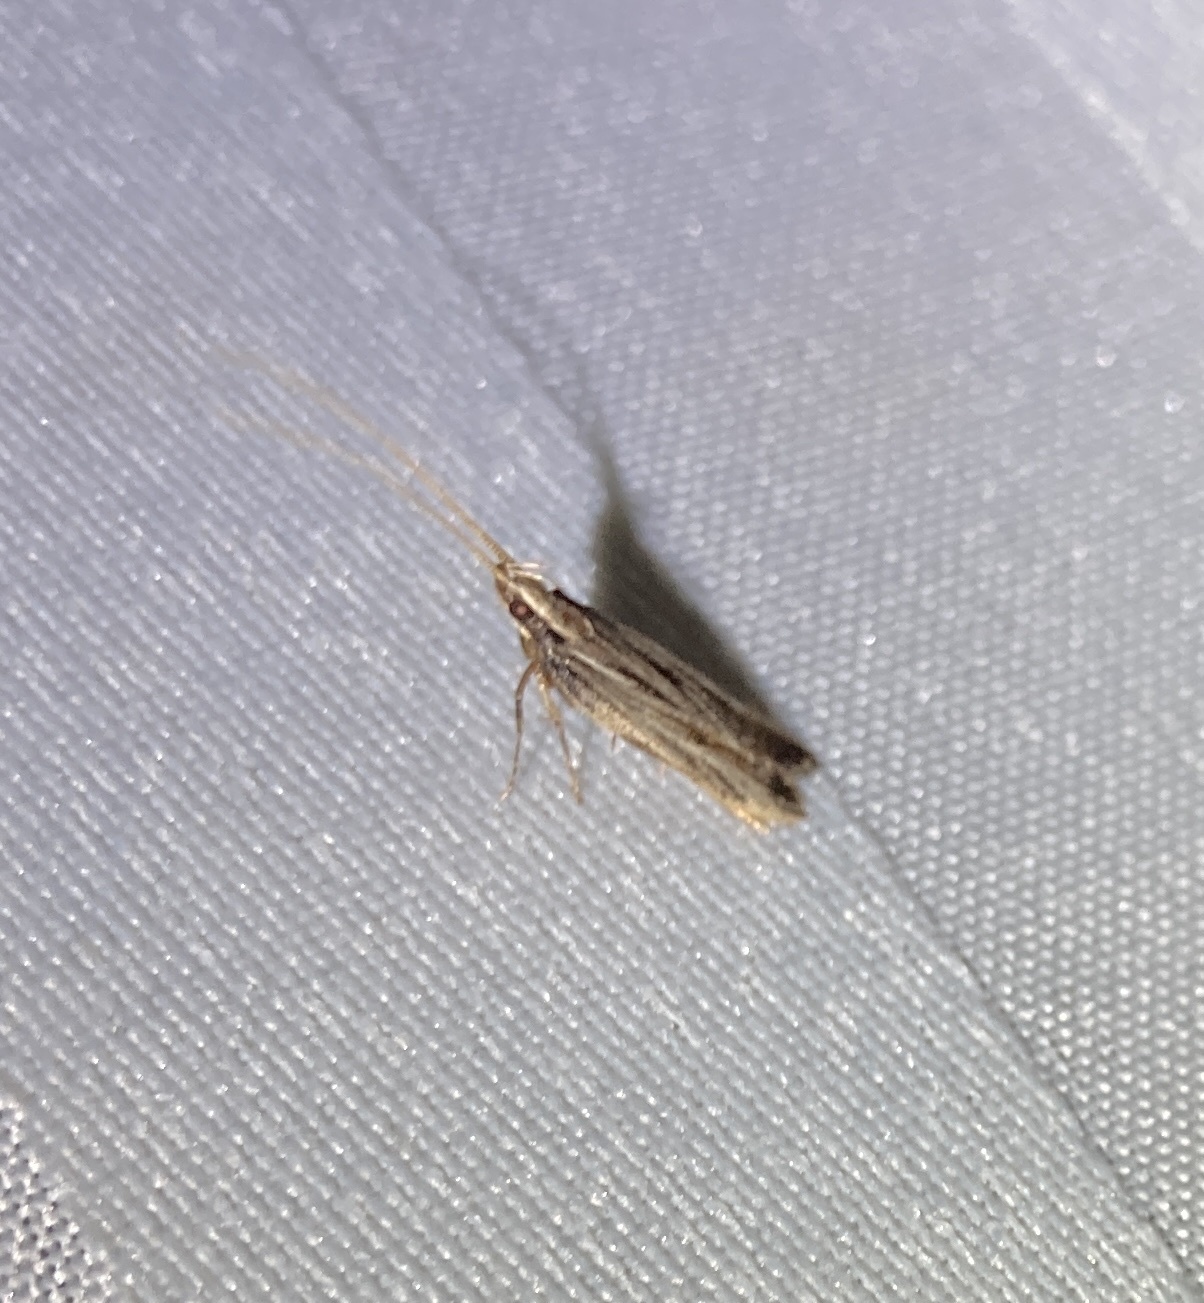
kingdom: Animalia
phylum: Arthropoda
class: Insecta
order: Lepidoptera
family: Lecithoceridae
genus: Sarisophora
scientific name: Sarisophora leucoscia
